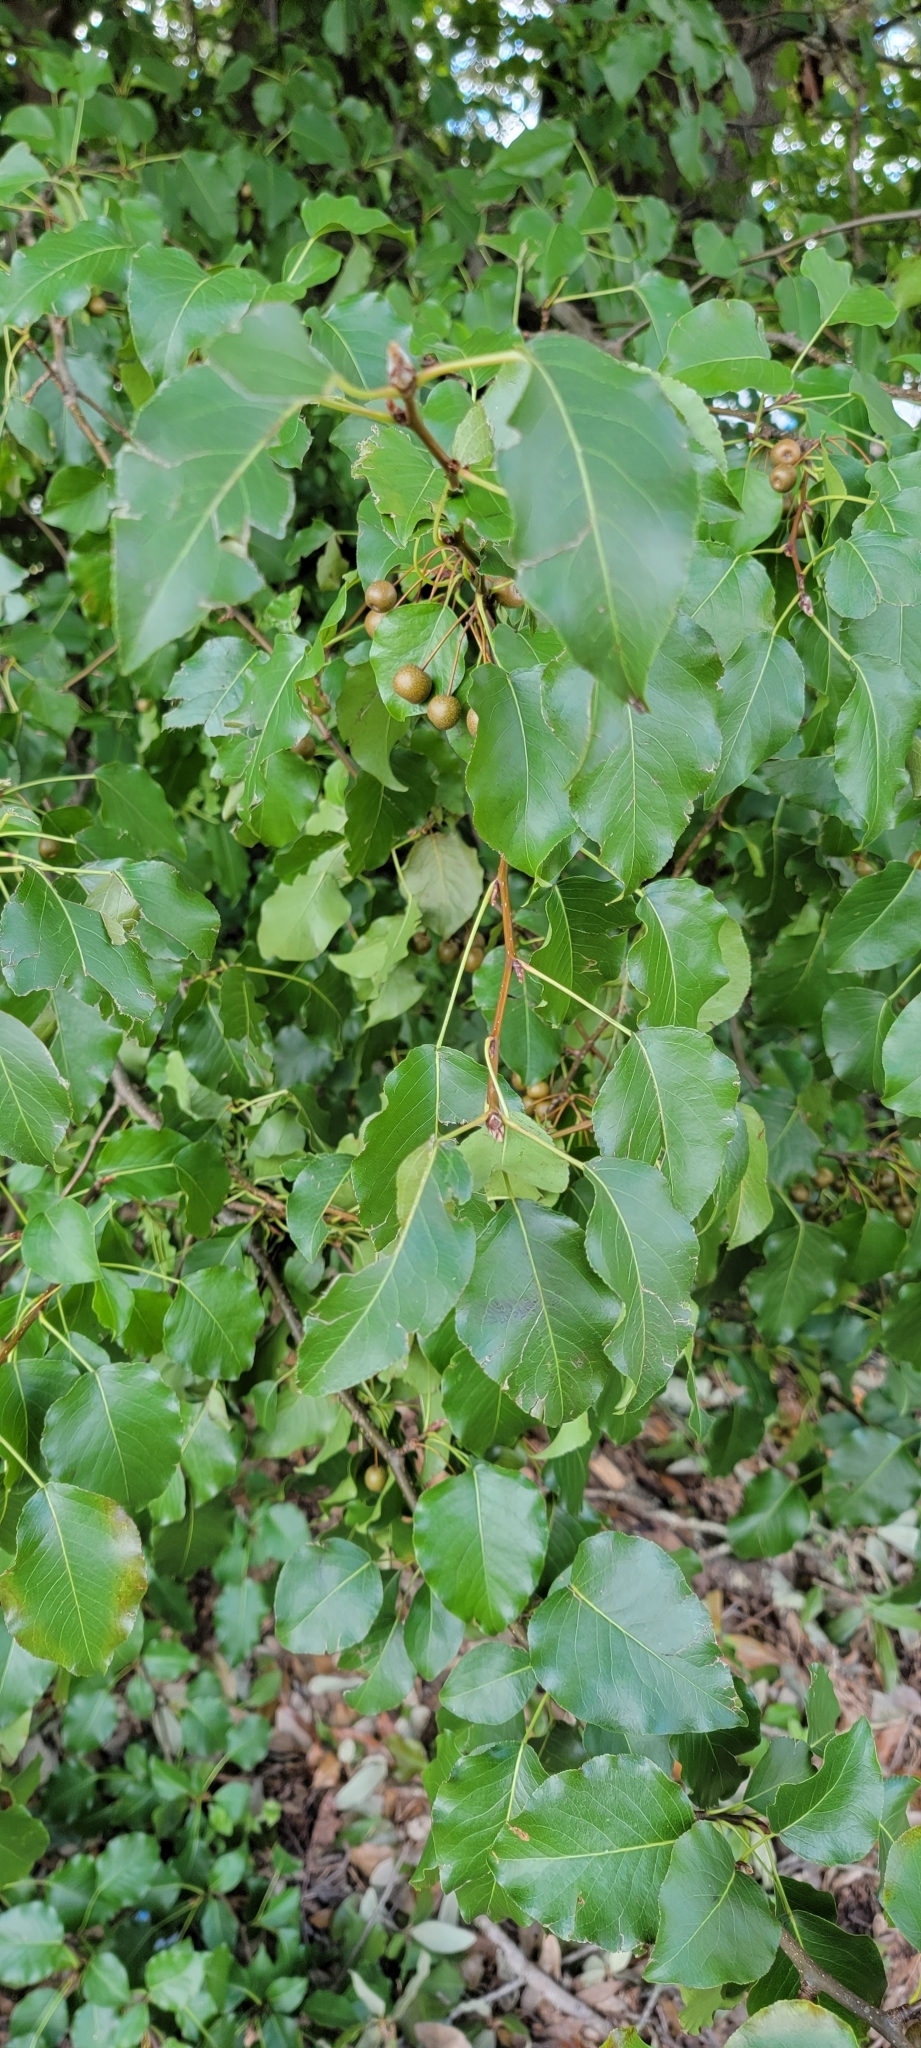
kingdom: Plantae
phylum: Tracheophyta
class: Magnoliopsida
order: Rosales
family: Rosaceae
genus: Pyrus
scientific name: Pyrus calleryana
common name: Callery pear
